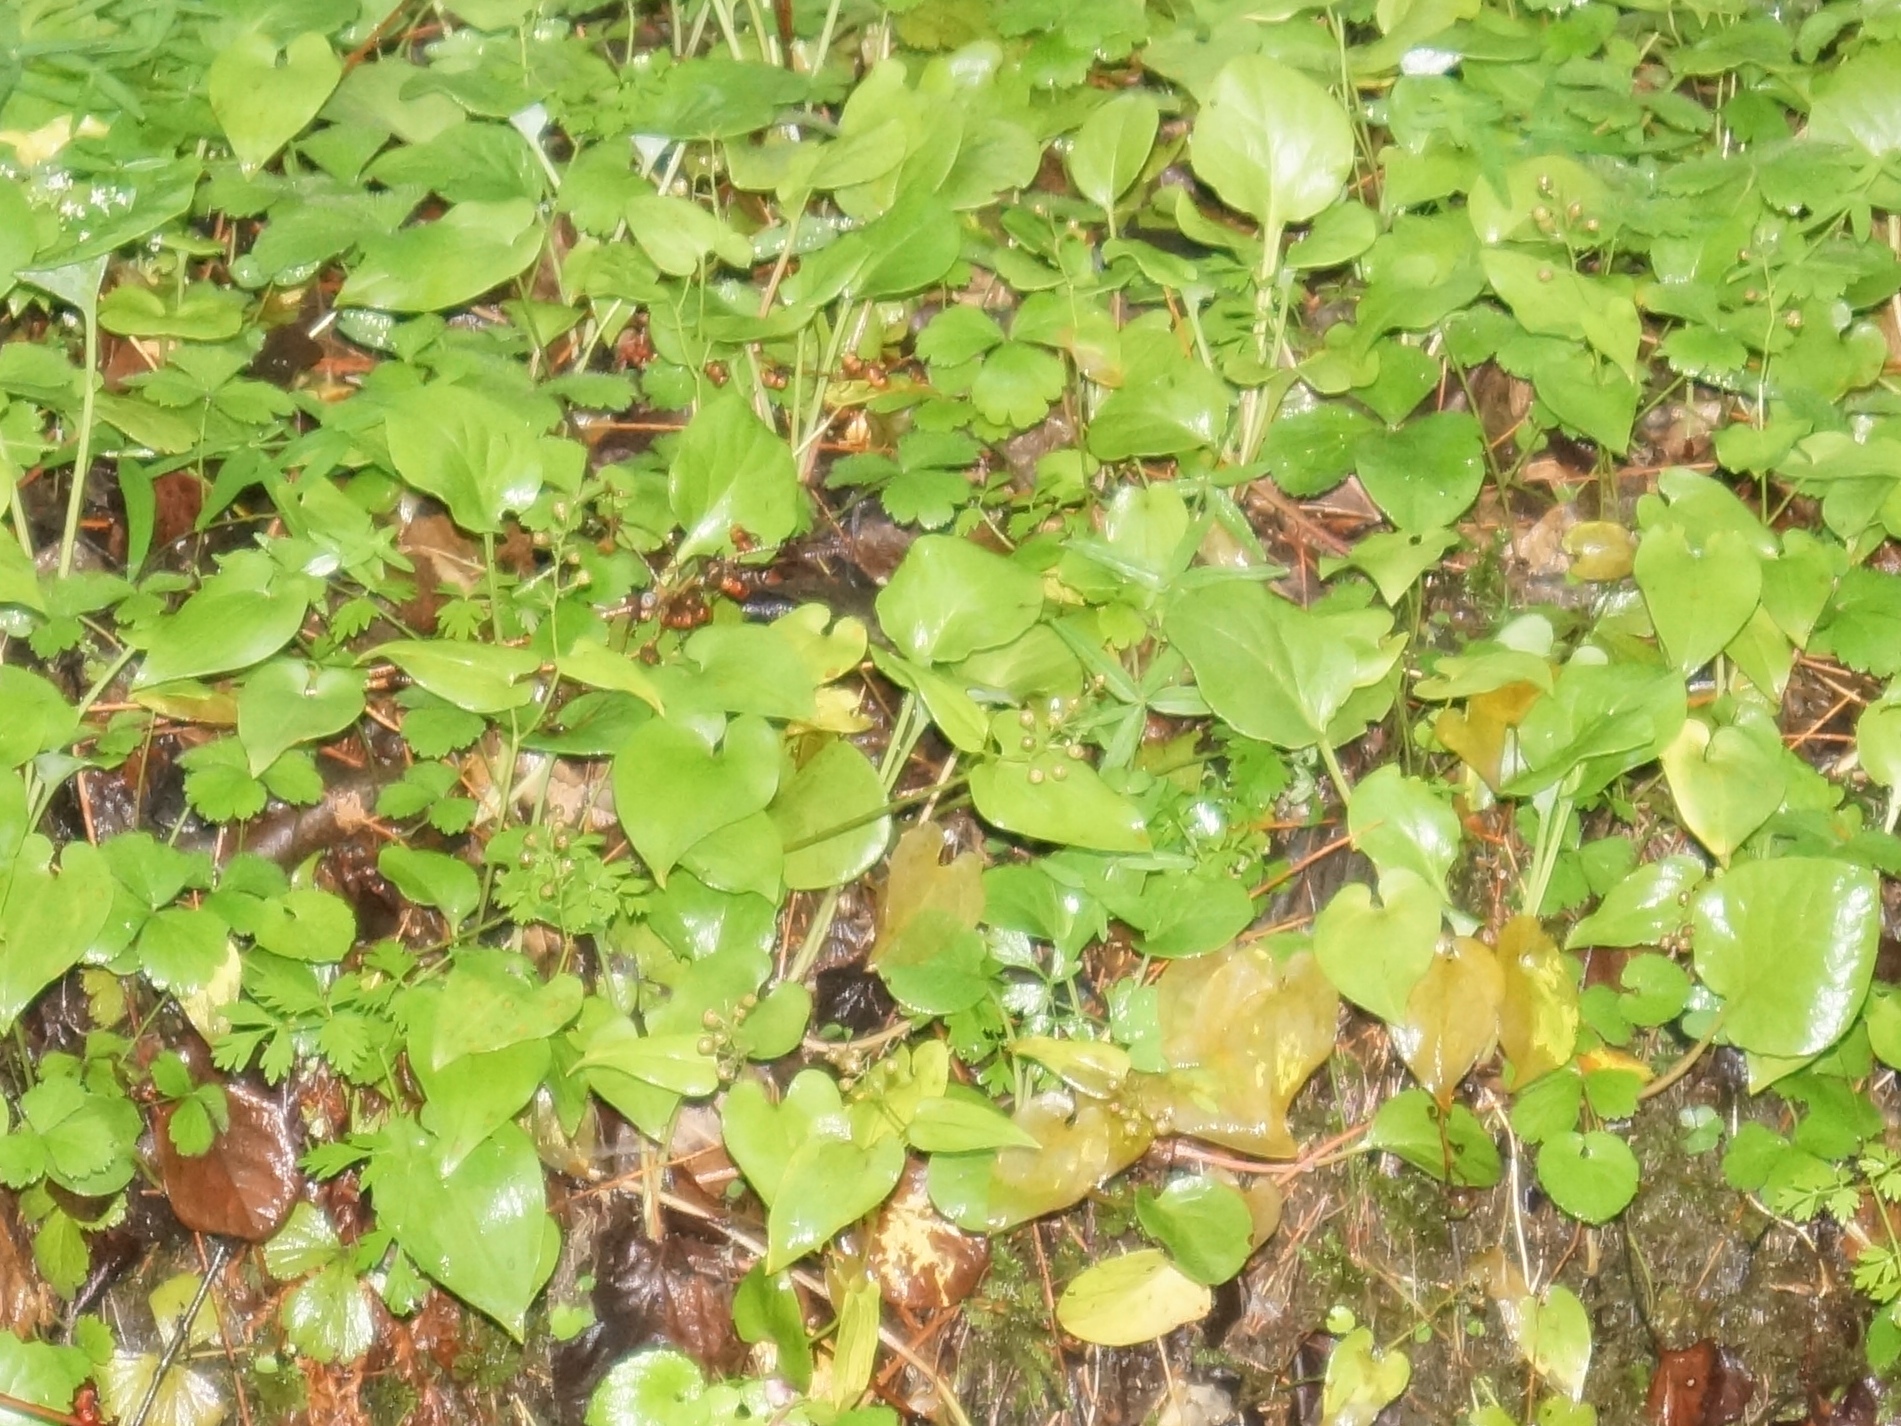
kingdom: Plantae
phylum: Tracheophyta
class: Liliopsida
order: Asparagales
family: Asparagaceae
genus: Maianthemum
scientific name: Maianthemum bifolium
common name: May lily
